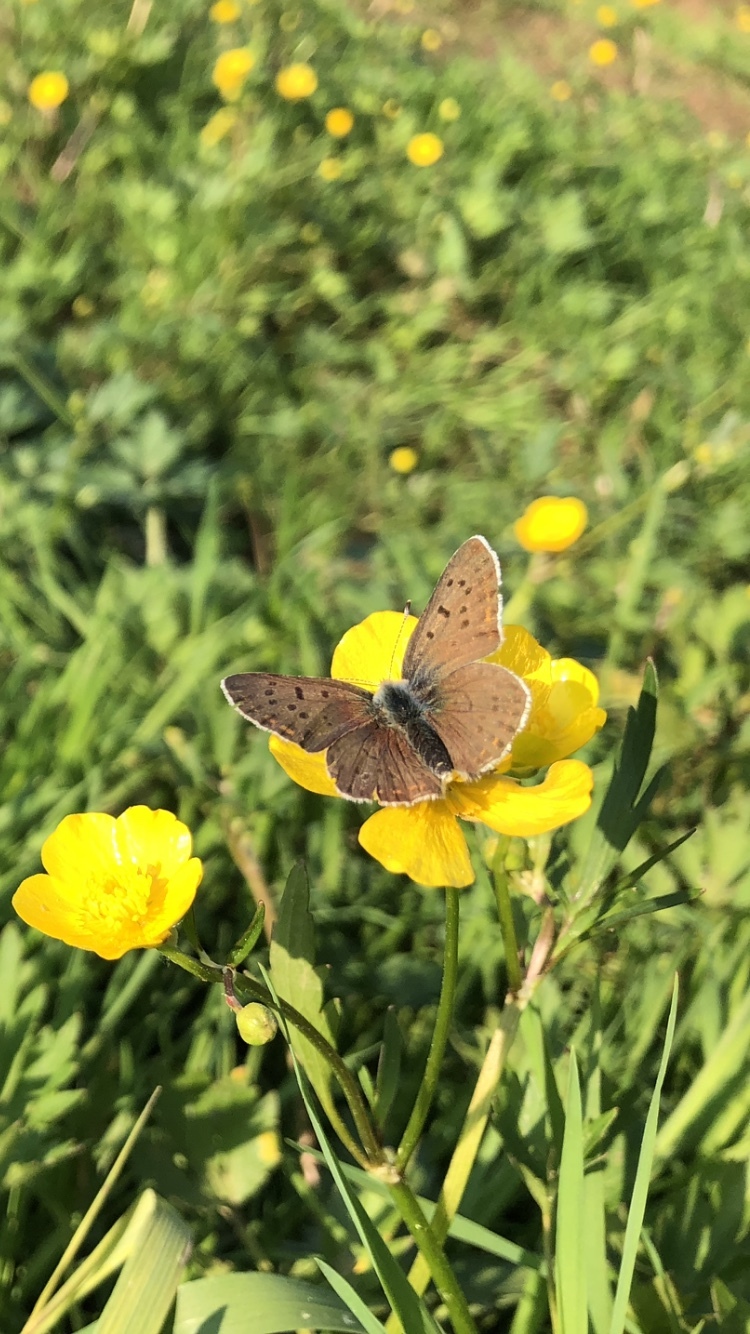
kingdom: Animalia
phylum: Arthropoda
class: Insecta
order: Lepidoptera
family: Lycaenidae
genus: Loweia
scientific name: Loweia tityrus
